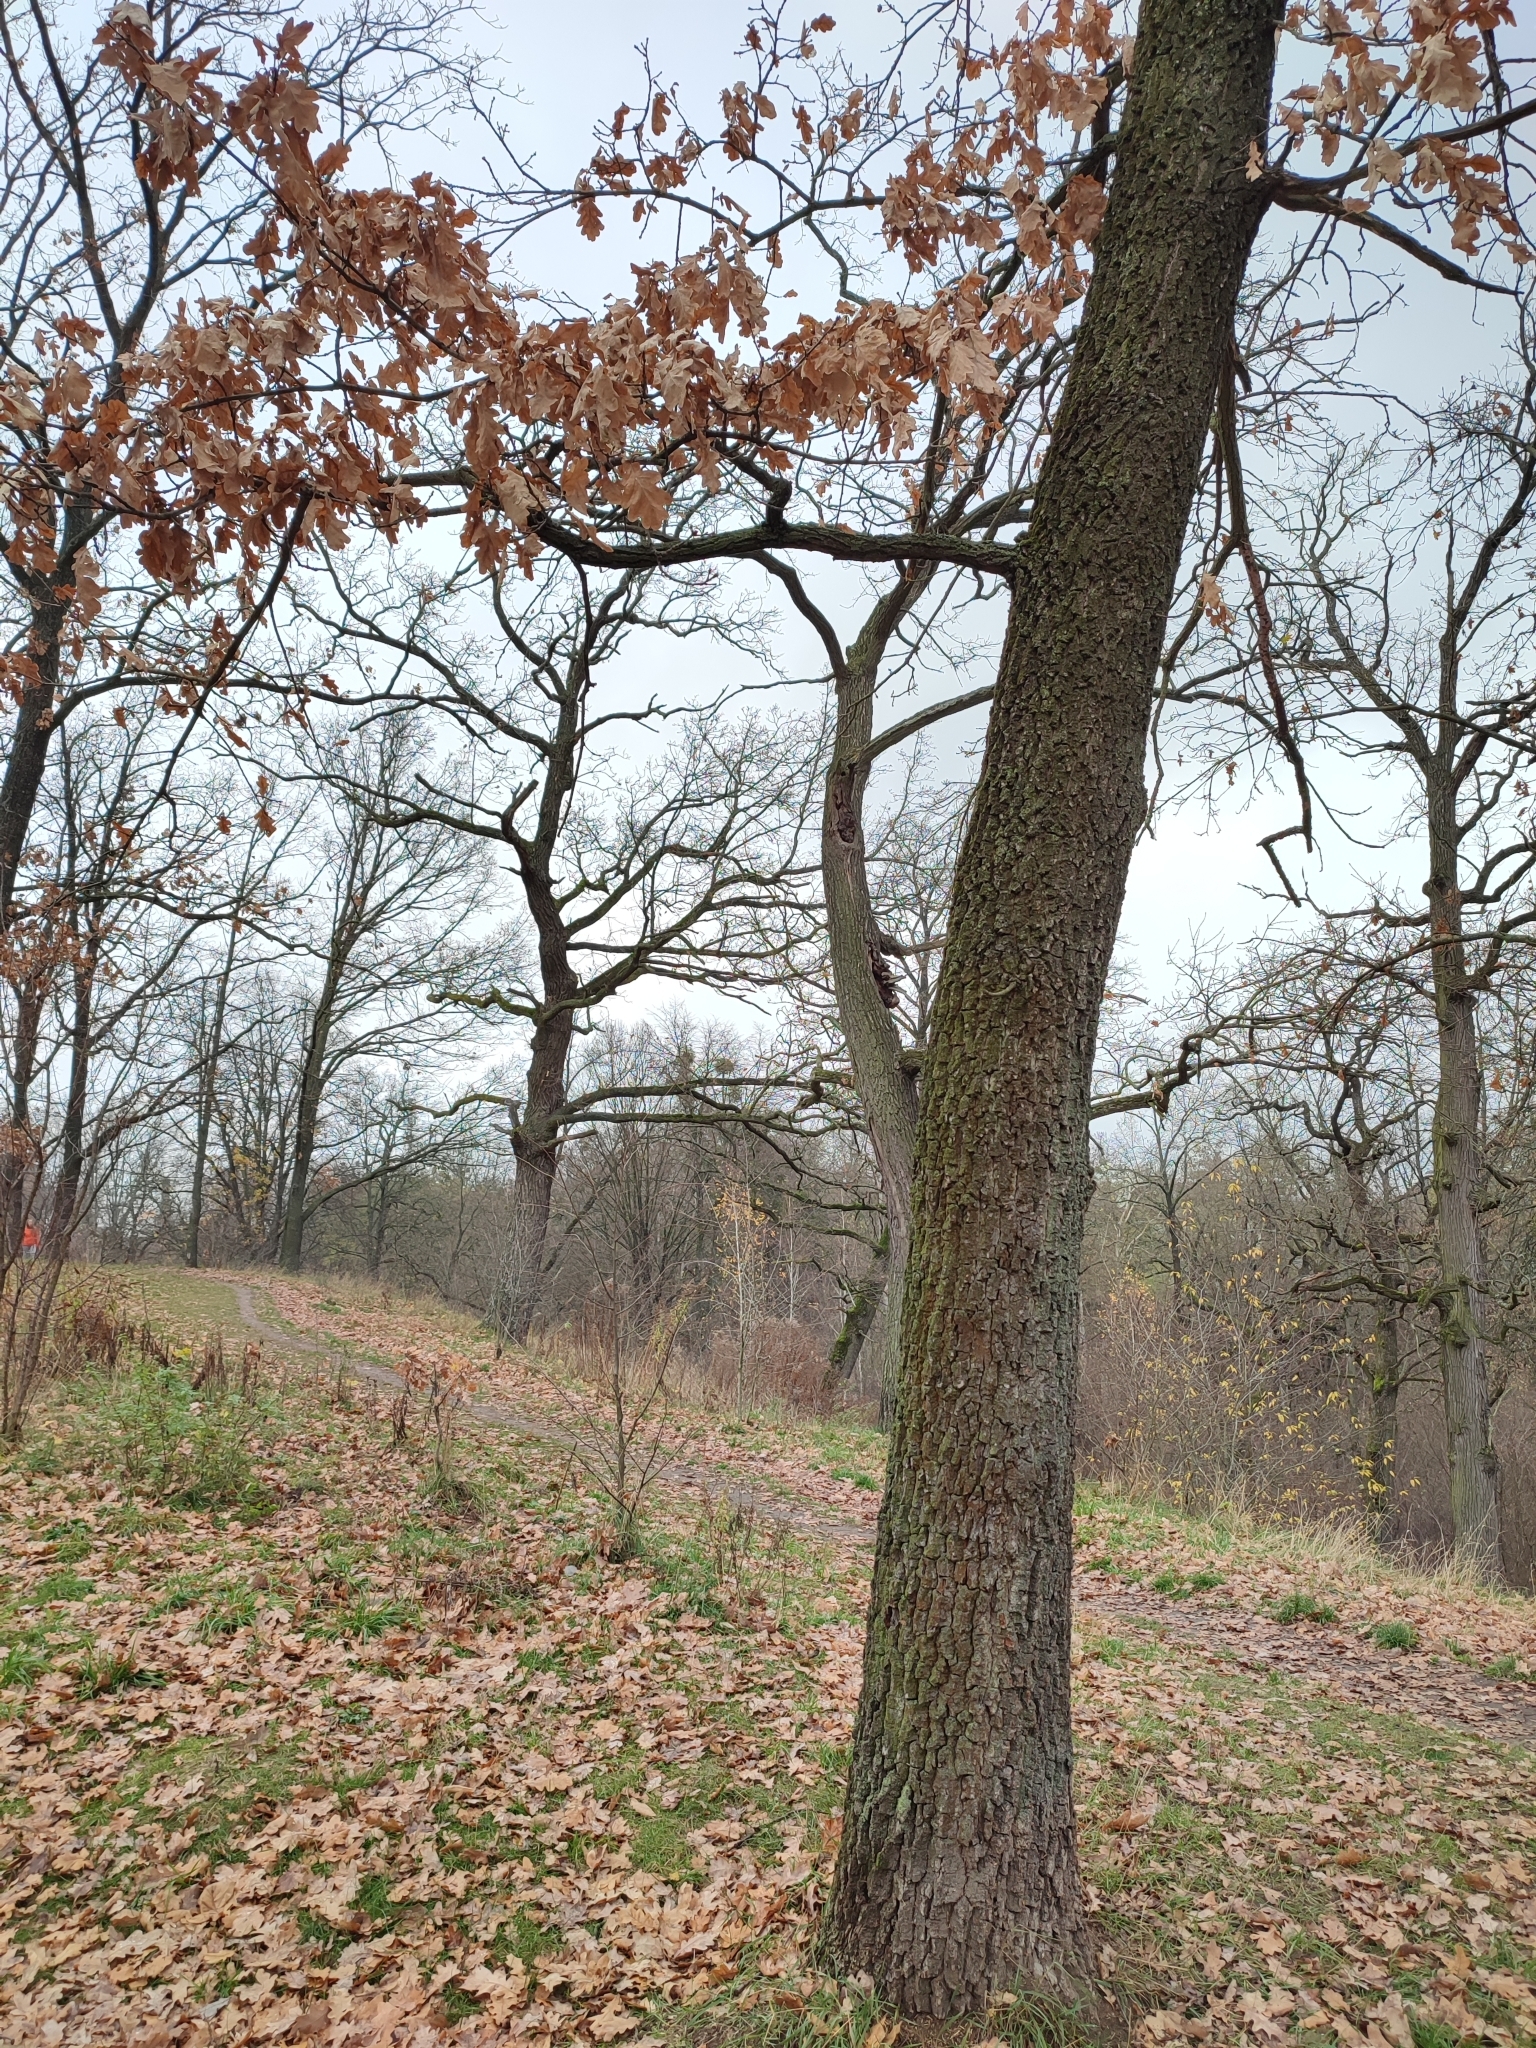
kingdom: Plantae
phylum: Tracheophyta
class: Magnoliopsida
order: Fagales
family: Fagaceae
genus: Quercus
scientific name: Quercus robur
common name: Pedunculate oak
